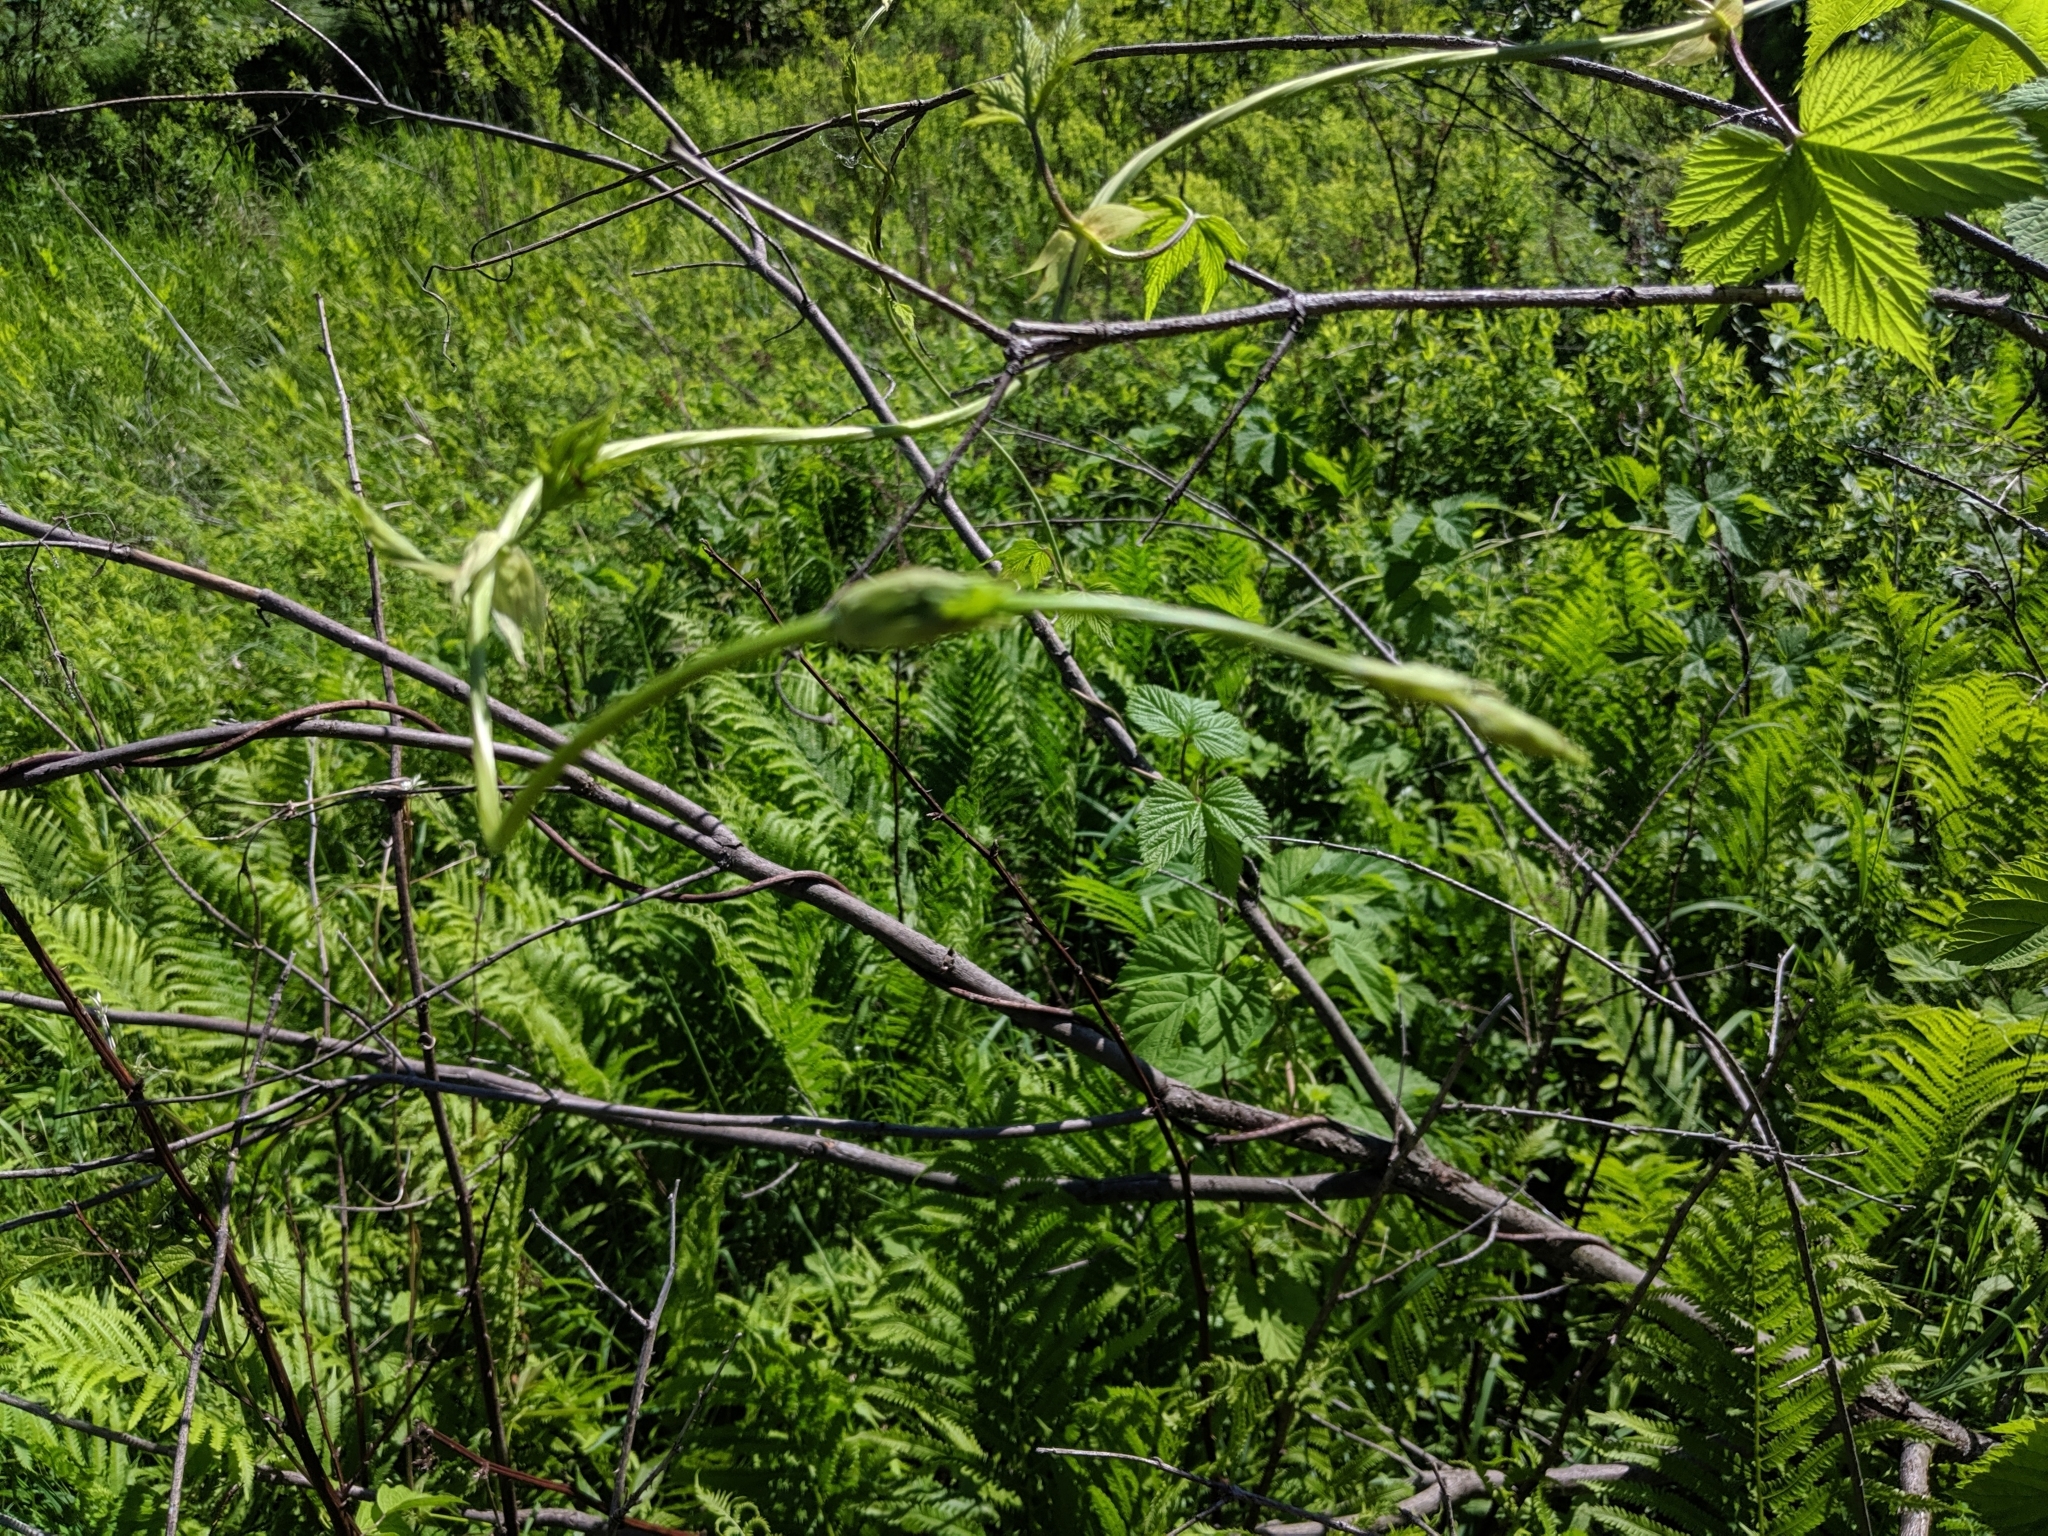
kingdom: Plantae
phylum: Tracheophyta
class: Magnoliopsida
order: Rosales
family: Cannabaceae
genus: Humulus
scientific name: Humulus lupulus
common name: Hop
